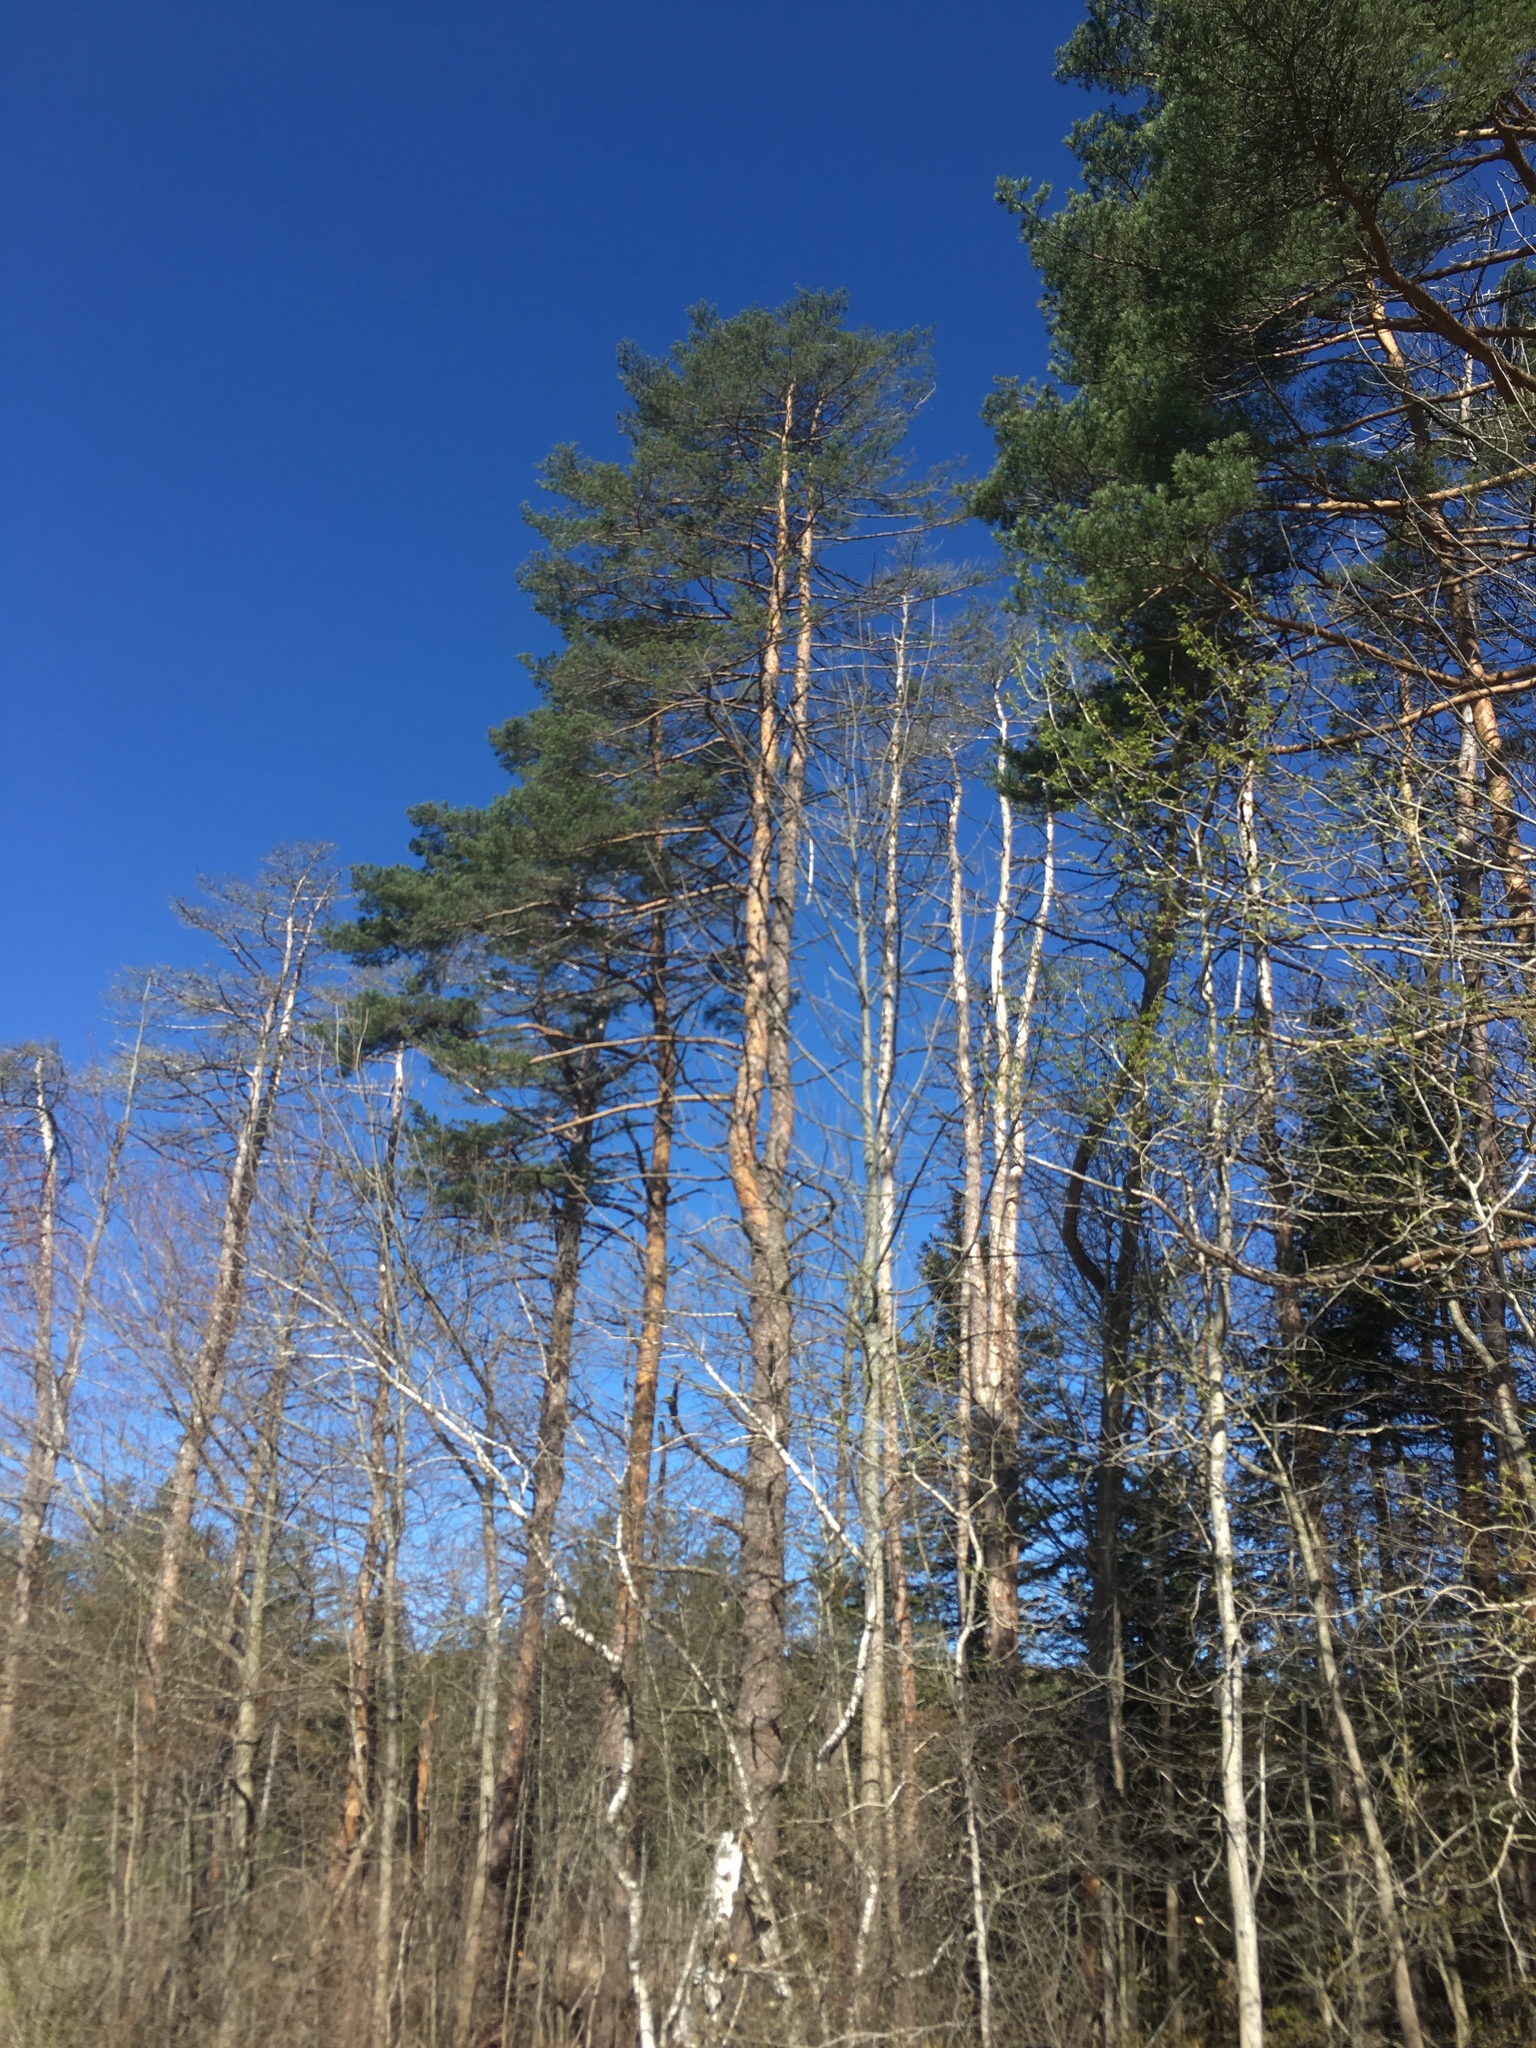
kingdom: Plantae
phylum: Tracheophyta
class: Pinopsida
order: Pinales
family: Pinaceae
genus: Pinus
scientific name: Pinus sylvestris
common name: Scots pine
